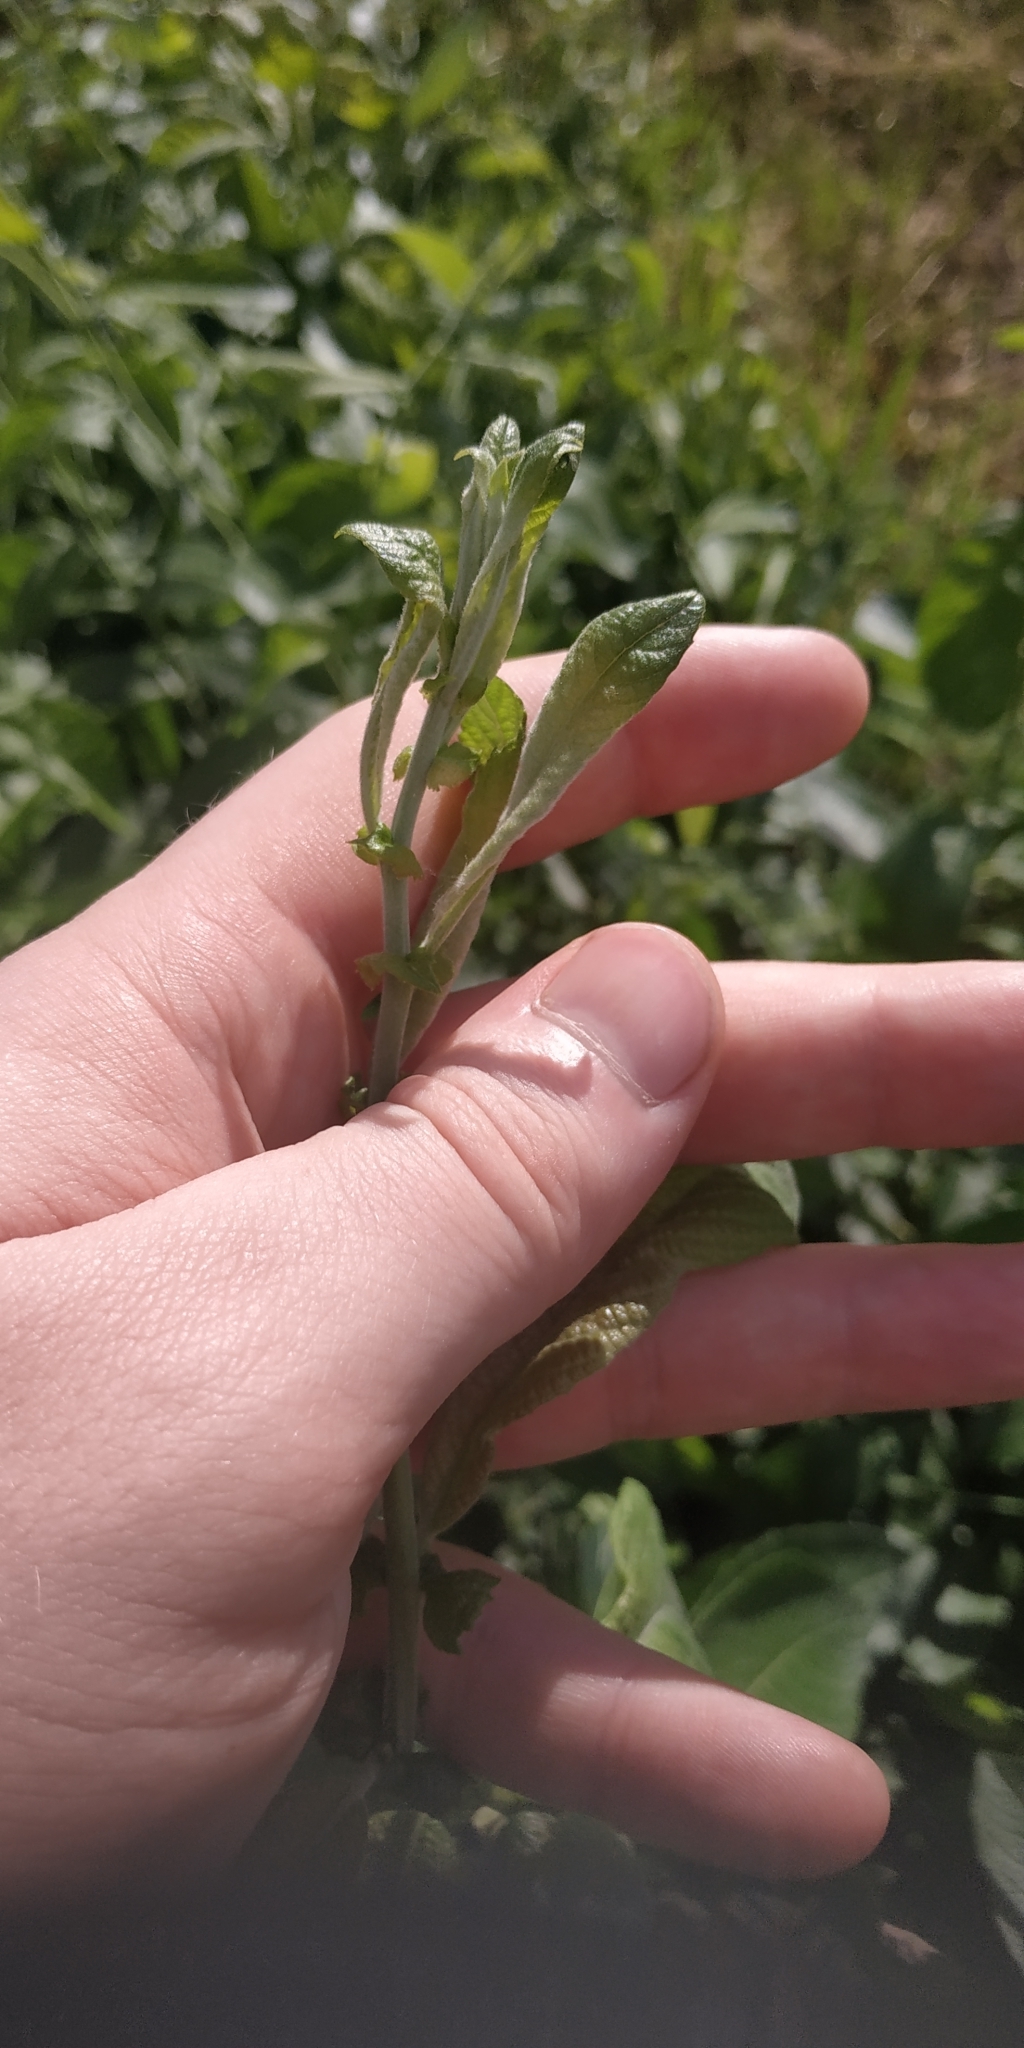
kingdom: Plantae
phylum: Tracheophyta
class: Magnoliopsida
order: Malpighiales
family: Salicaceae
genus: Salix
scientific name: Salix cinerea
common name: Common sallow
